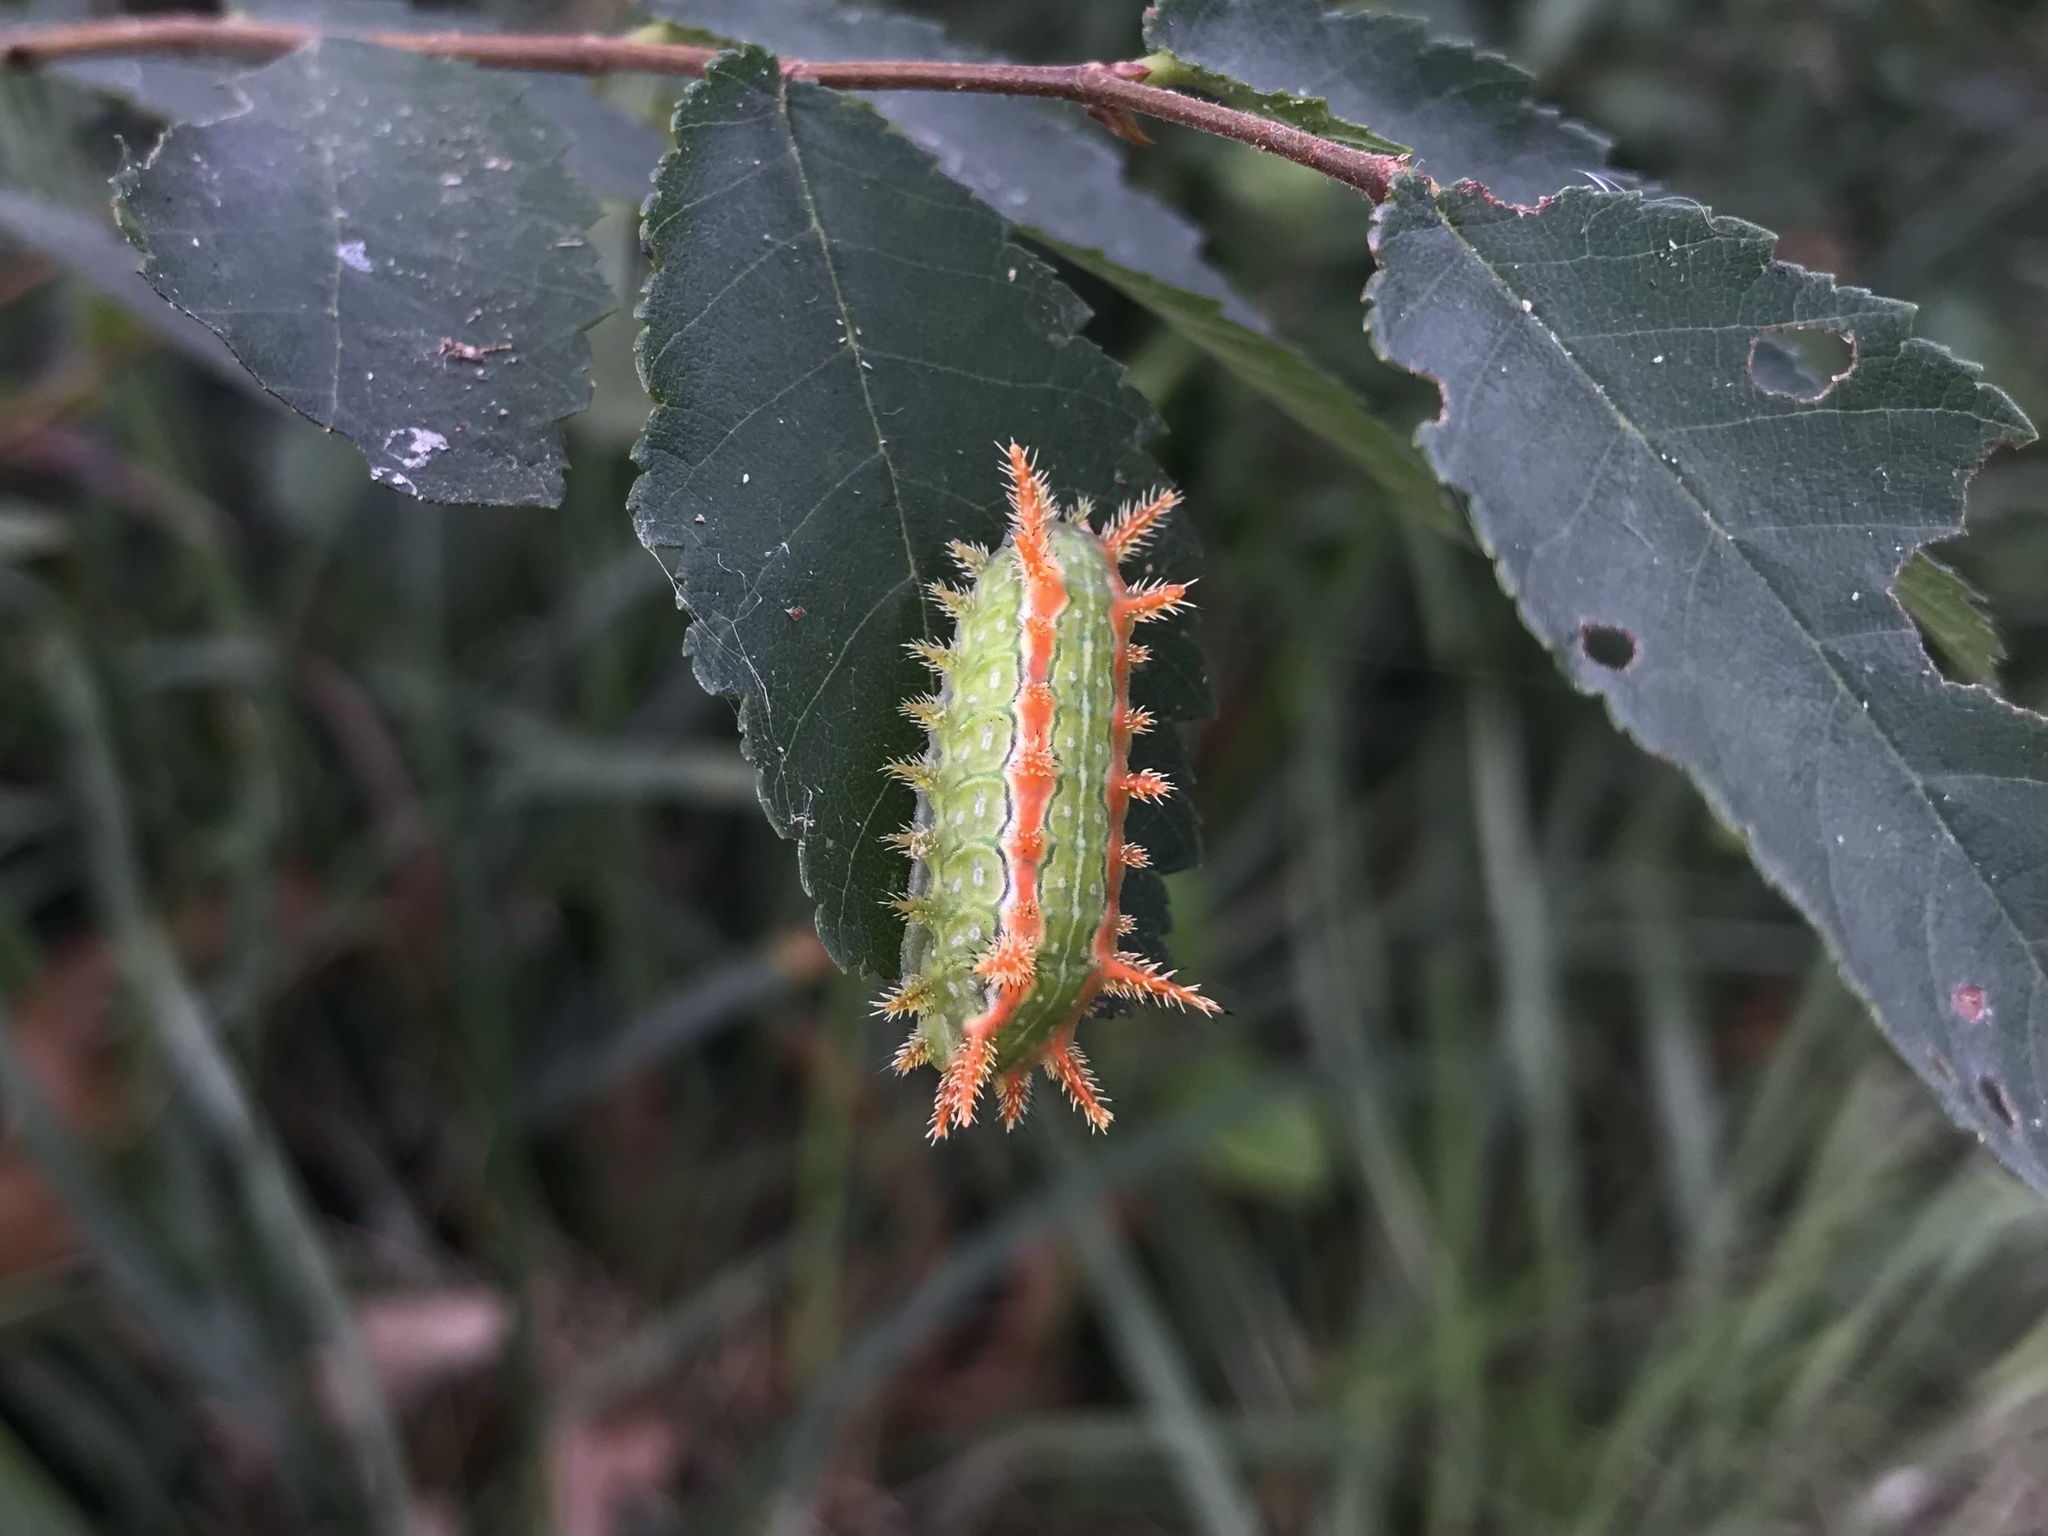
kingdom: Animalia
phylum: Arthropoda
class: Insecta
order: Lepidoptera
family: Limacodidae
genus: Euclea
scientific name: Euclea incisa
